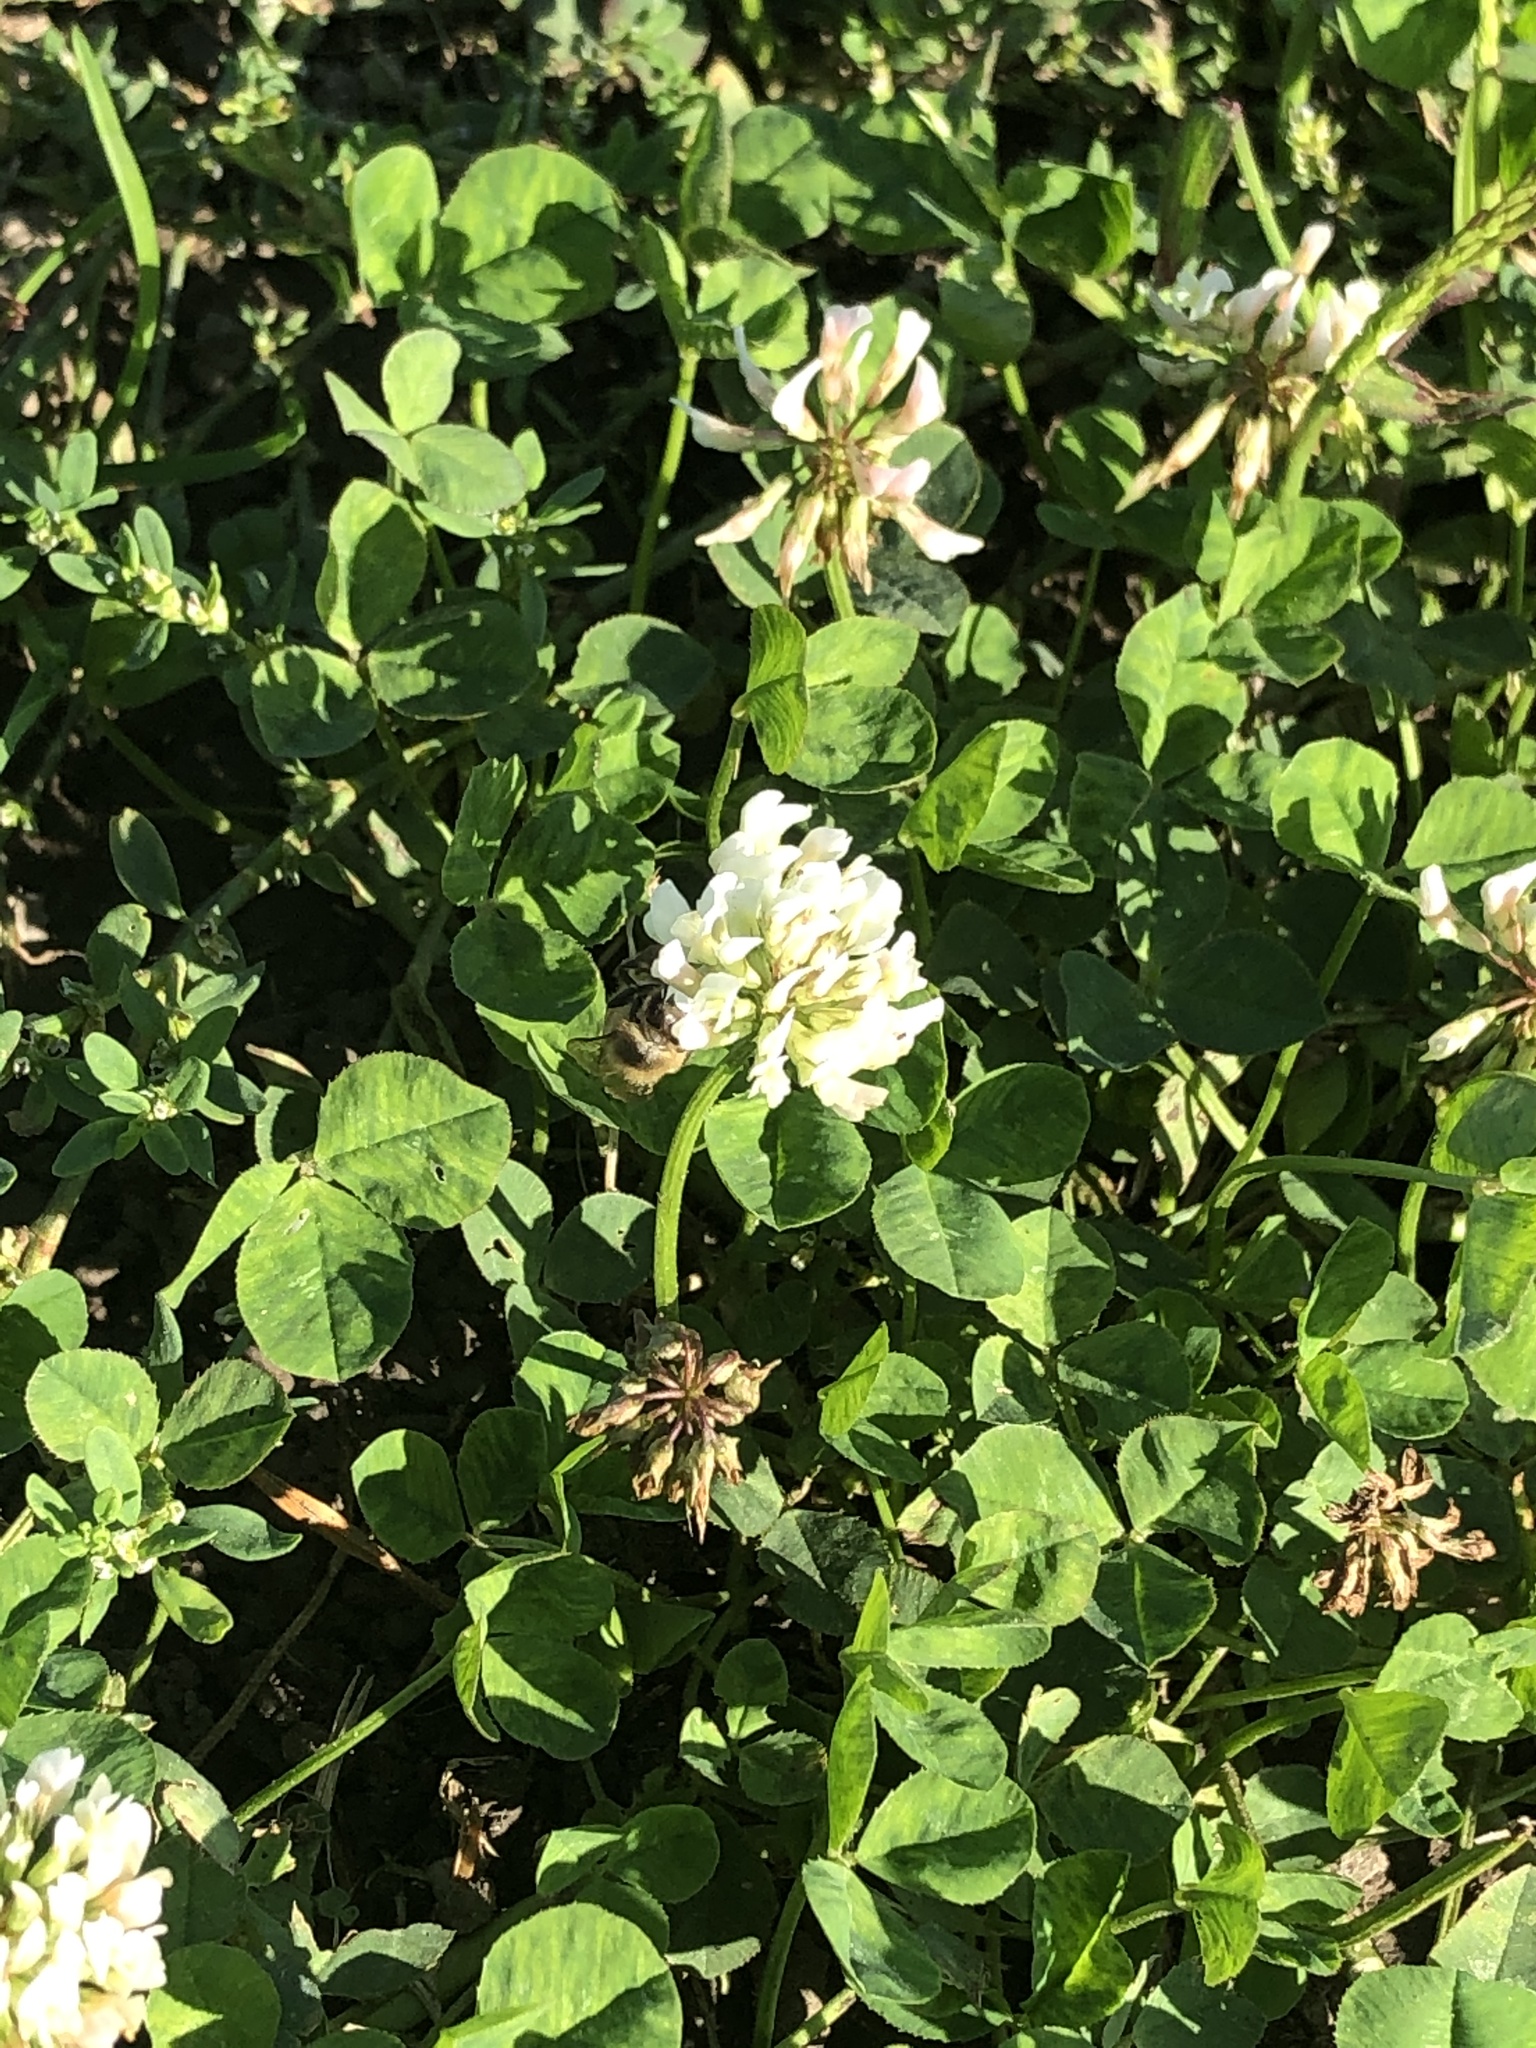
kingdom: Animalia
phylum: Arthropoda
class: Insecta
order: Hymenoptera
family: Apidae
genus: Apis
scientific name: Apis mellifera
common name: Honey bee
